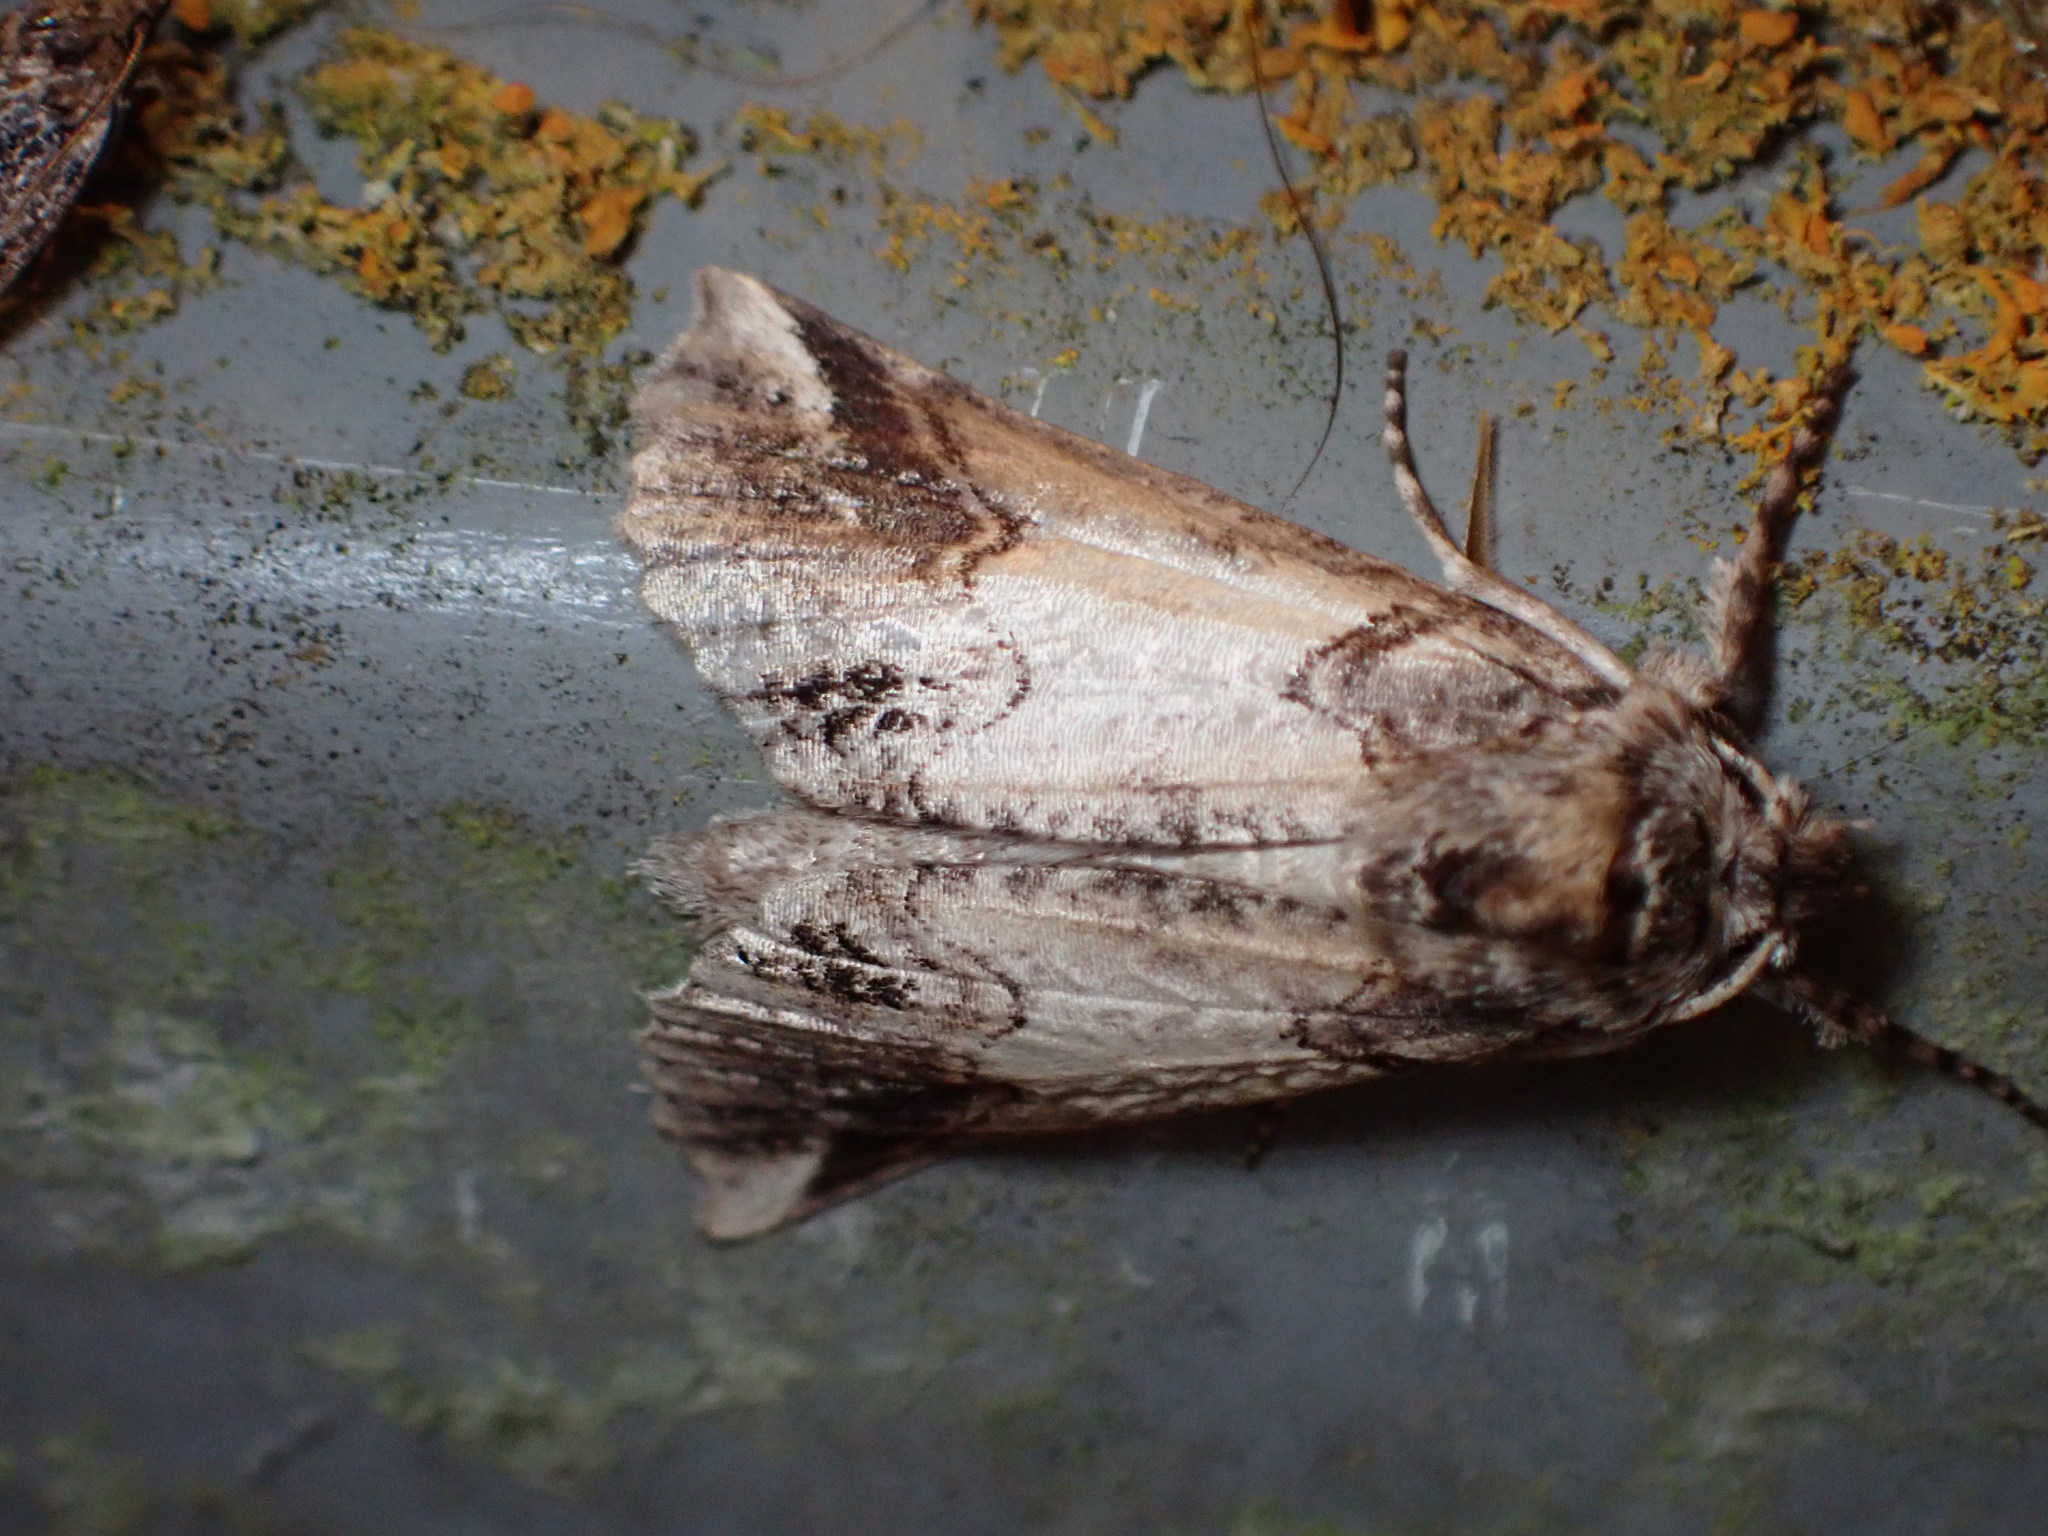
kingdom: Animalia
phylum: Arthropoda
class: Insecta
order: Lepidoptera
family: Geometridae
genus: Declana
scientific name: Declana
